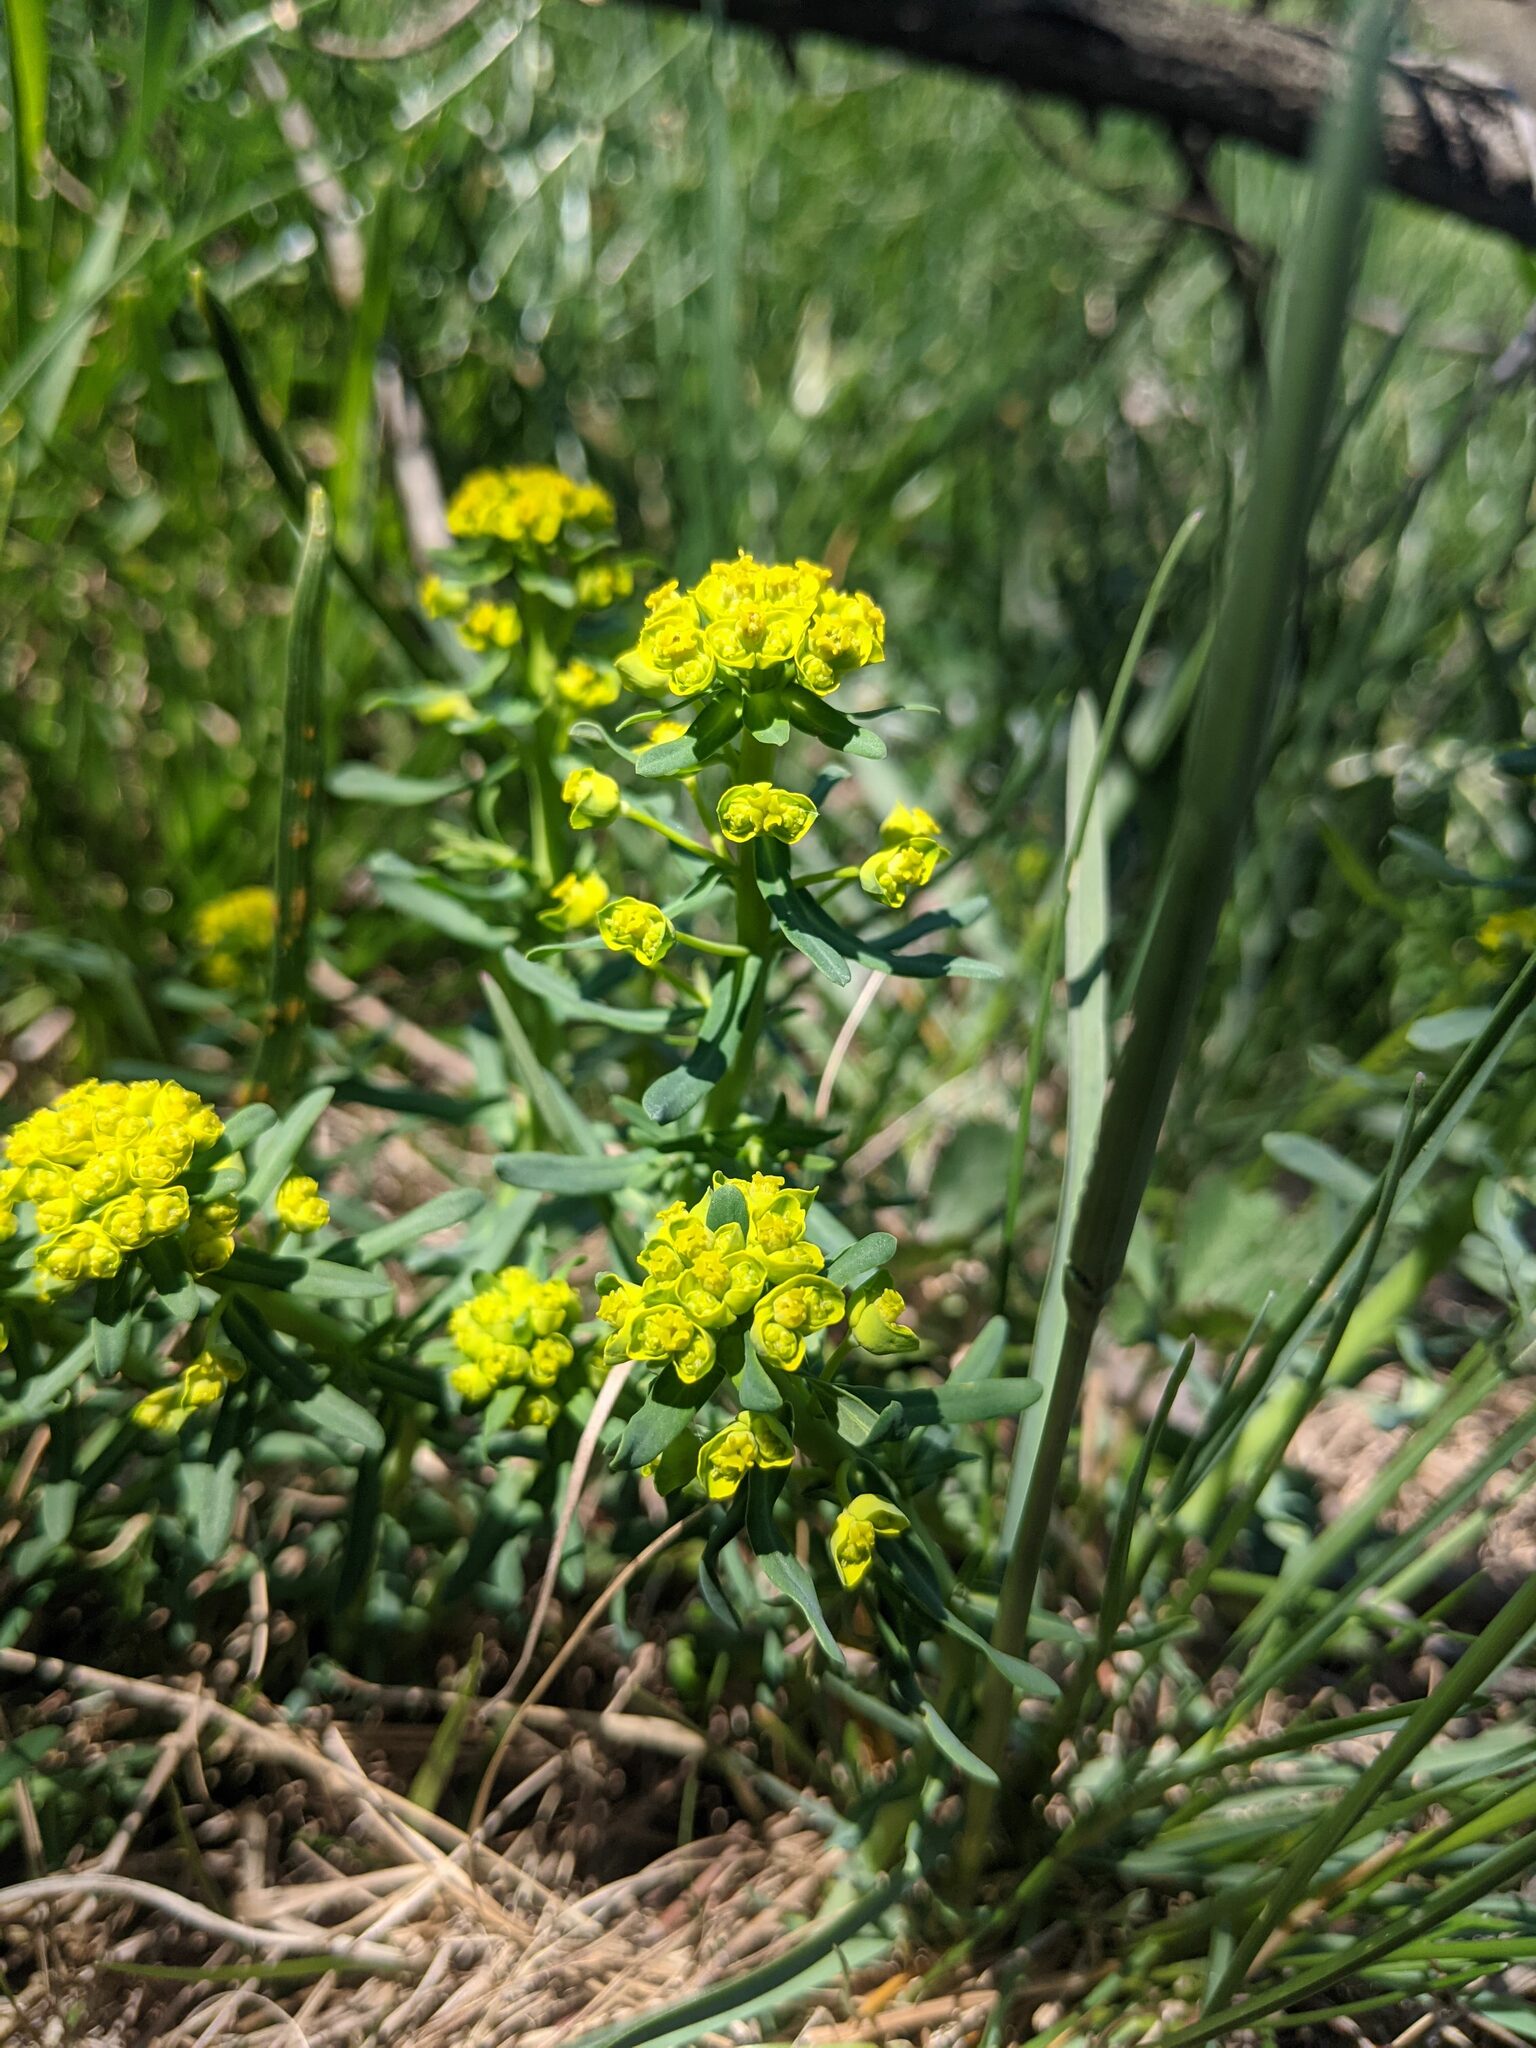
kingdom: Plantae
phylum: Tracheophyta
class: Magnoliopsida
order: Malpighiales
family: Euphorbiaceae
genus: Euphorbia
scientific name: Euphorbia cyparissias
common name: Cypress spurge
